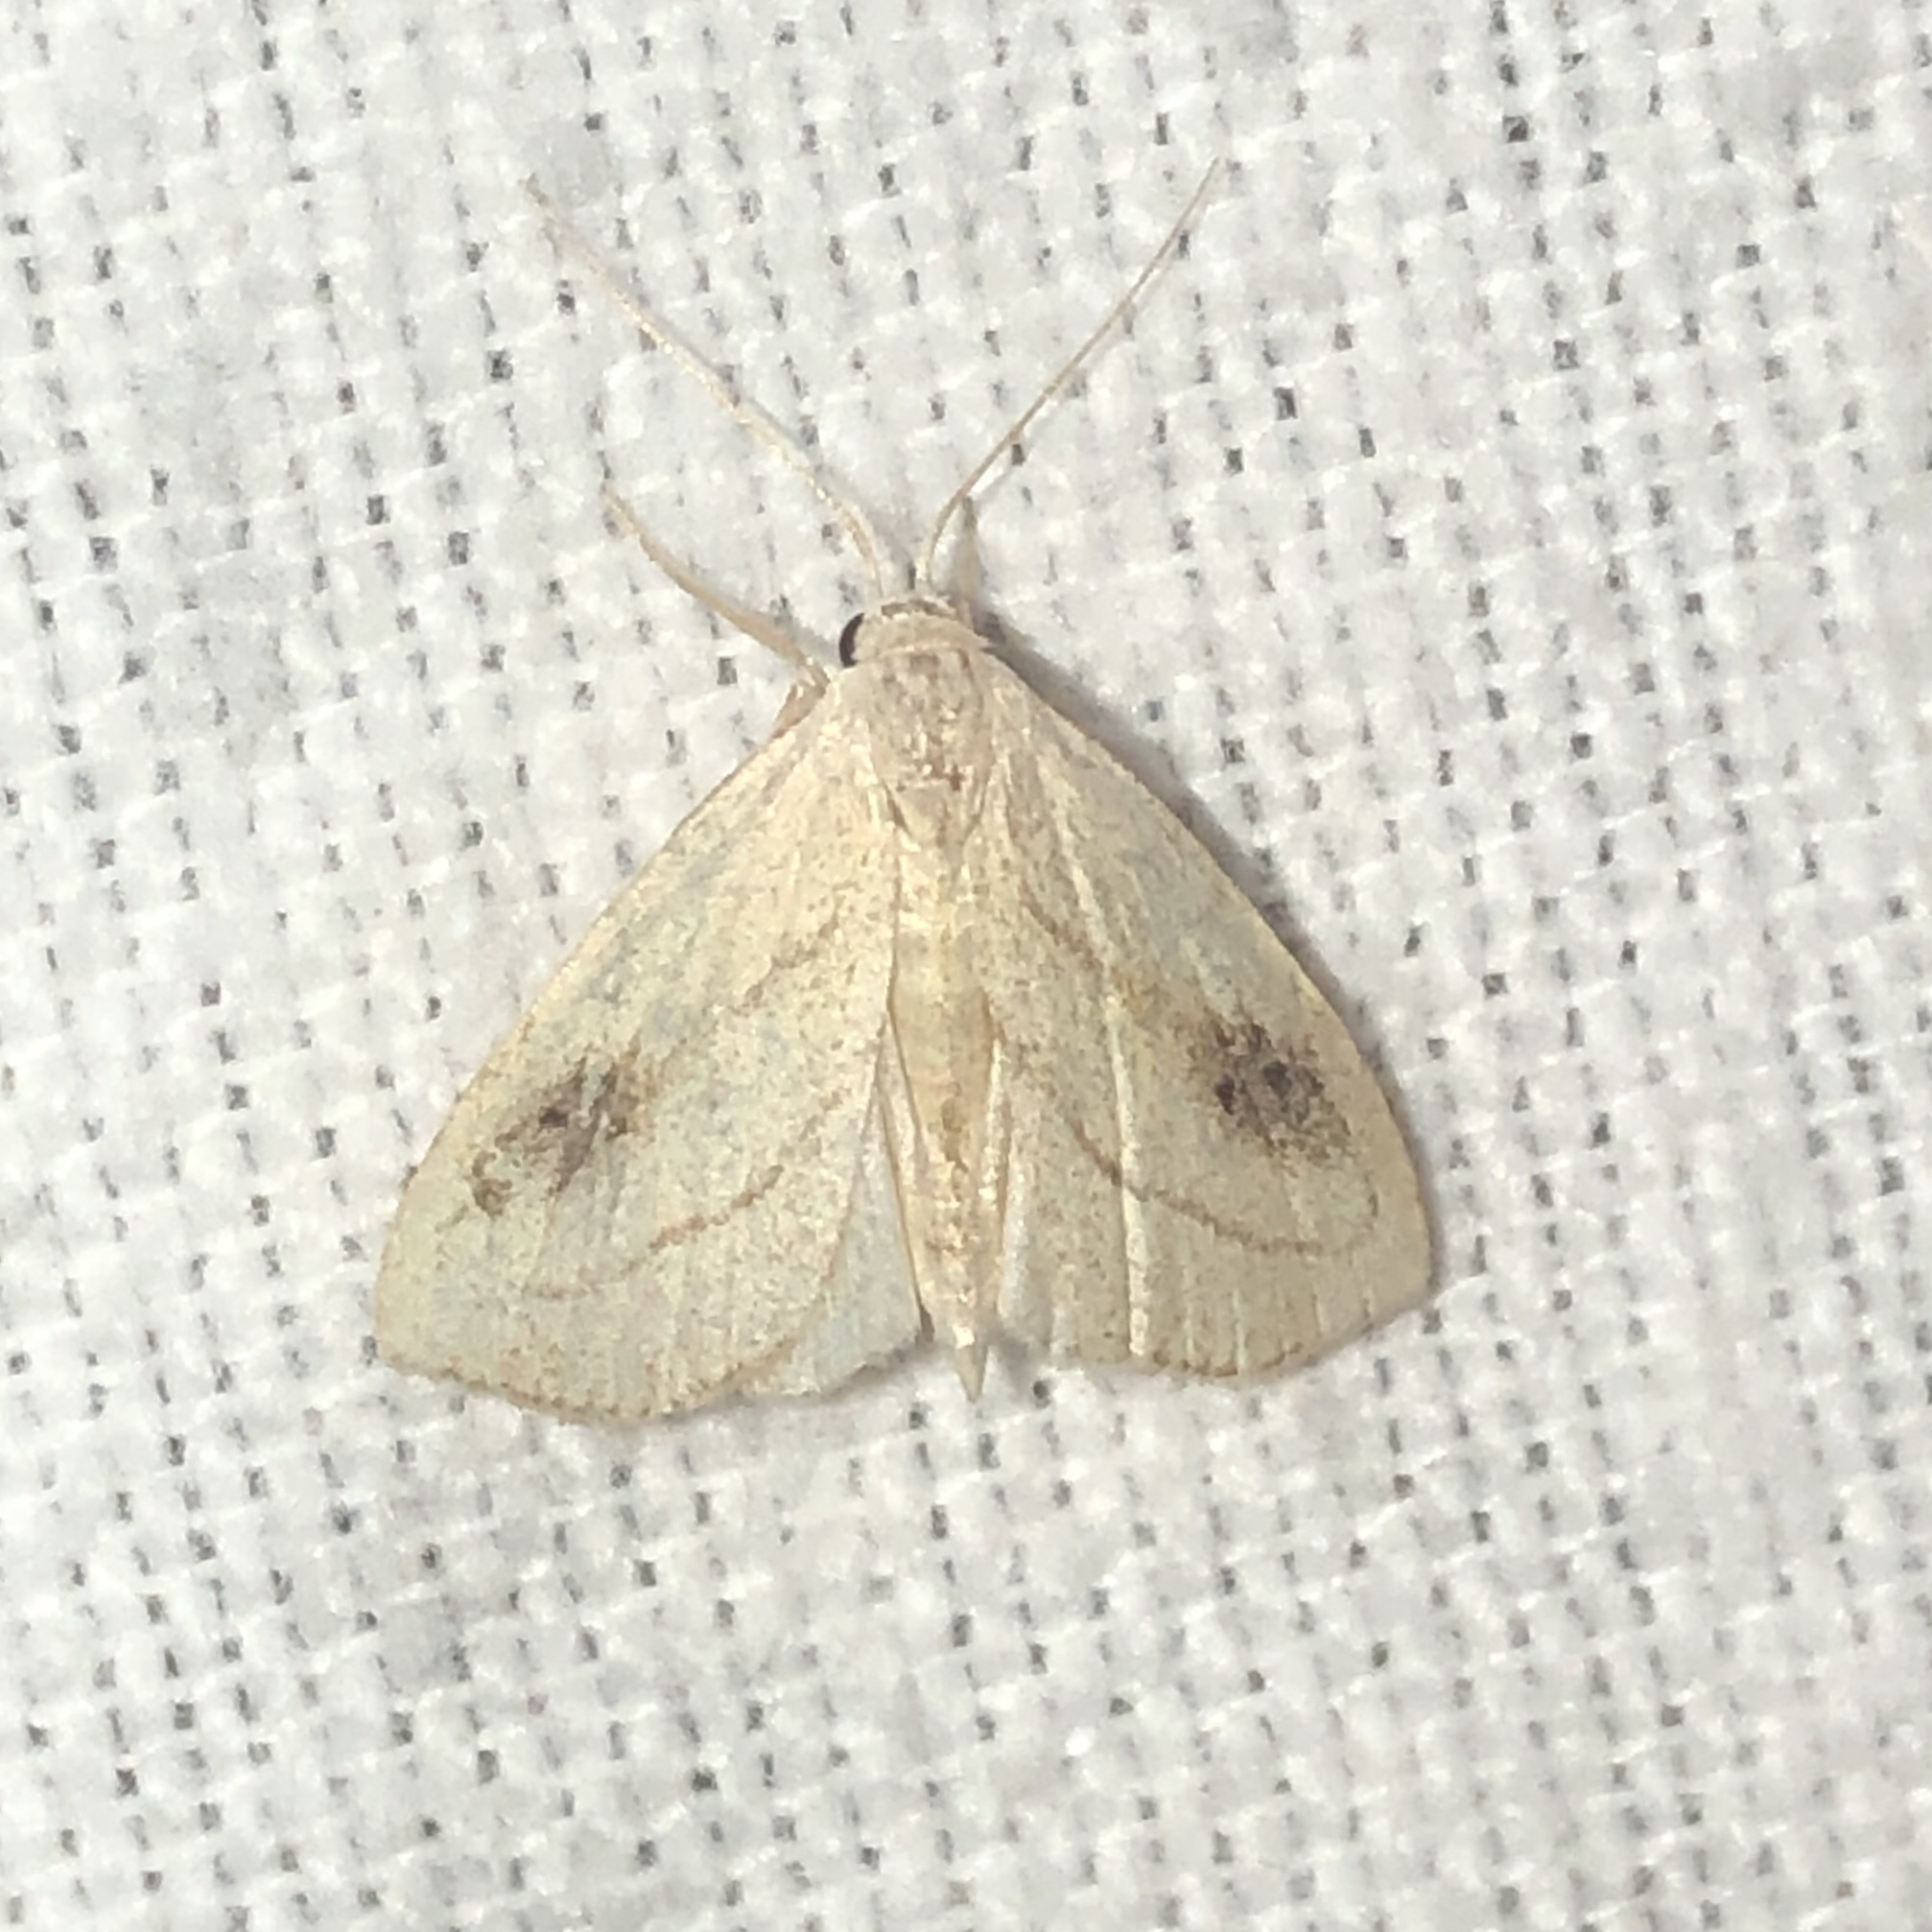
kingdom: Animalia
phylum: Arthropoda
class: Insecta
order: Lepidoptera
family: Erebidae
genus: Rivula
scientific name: Rivula propinqualis
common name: Spotted grass moth
